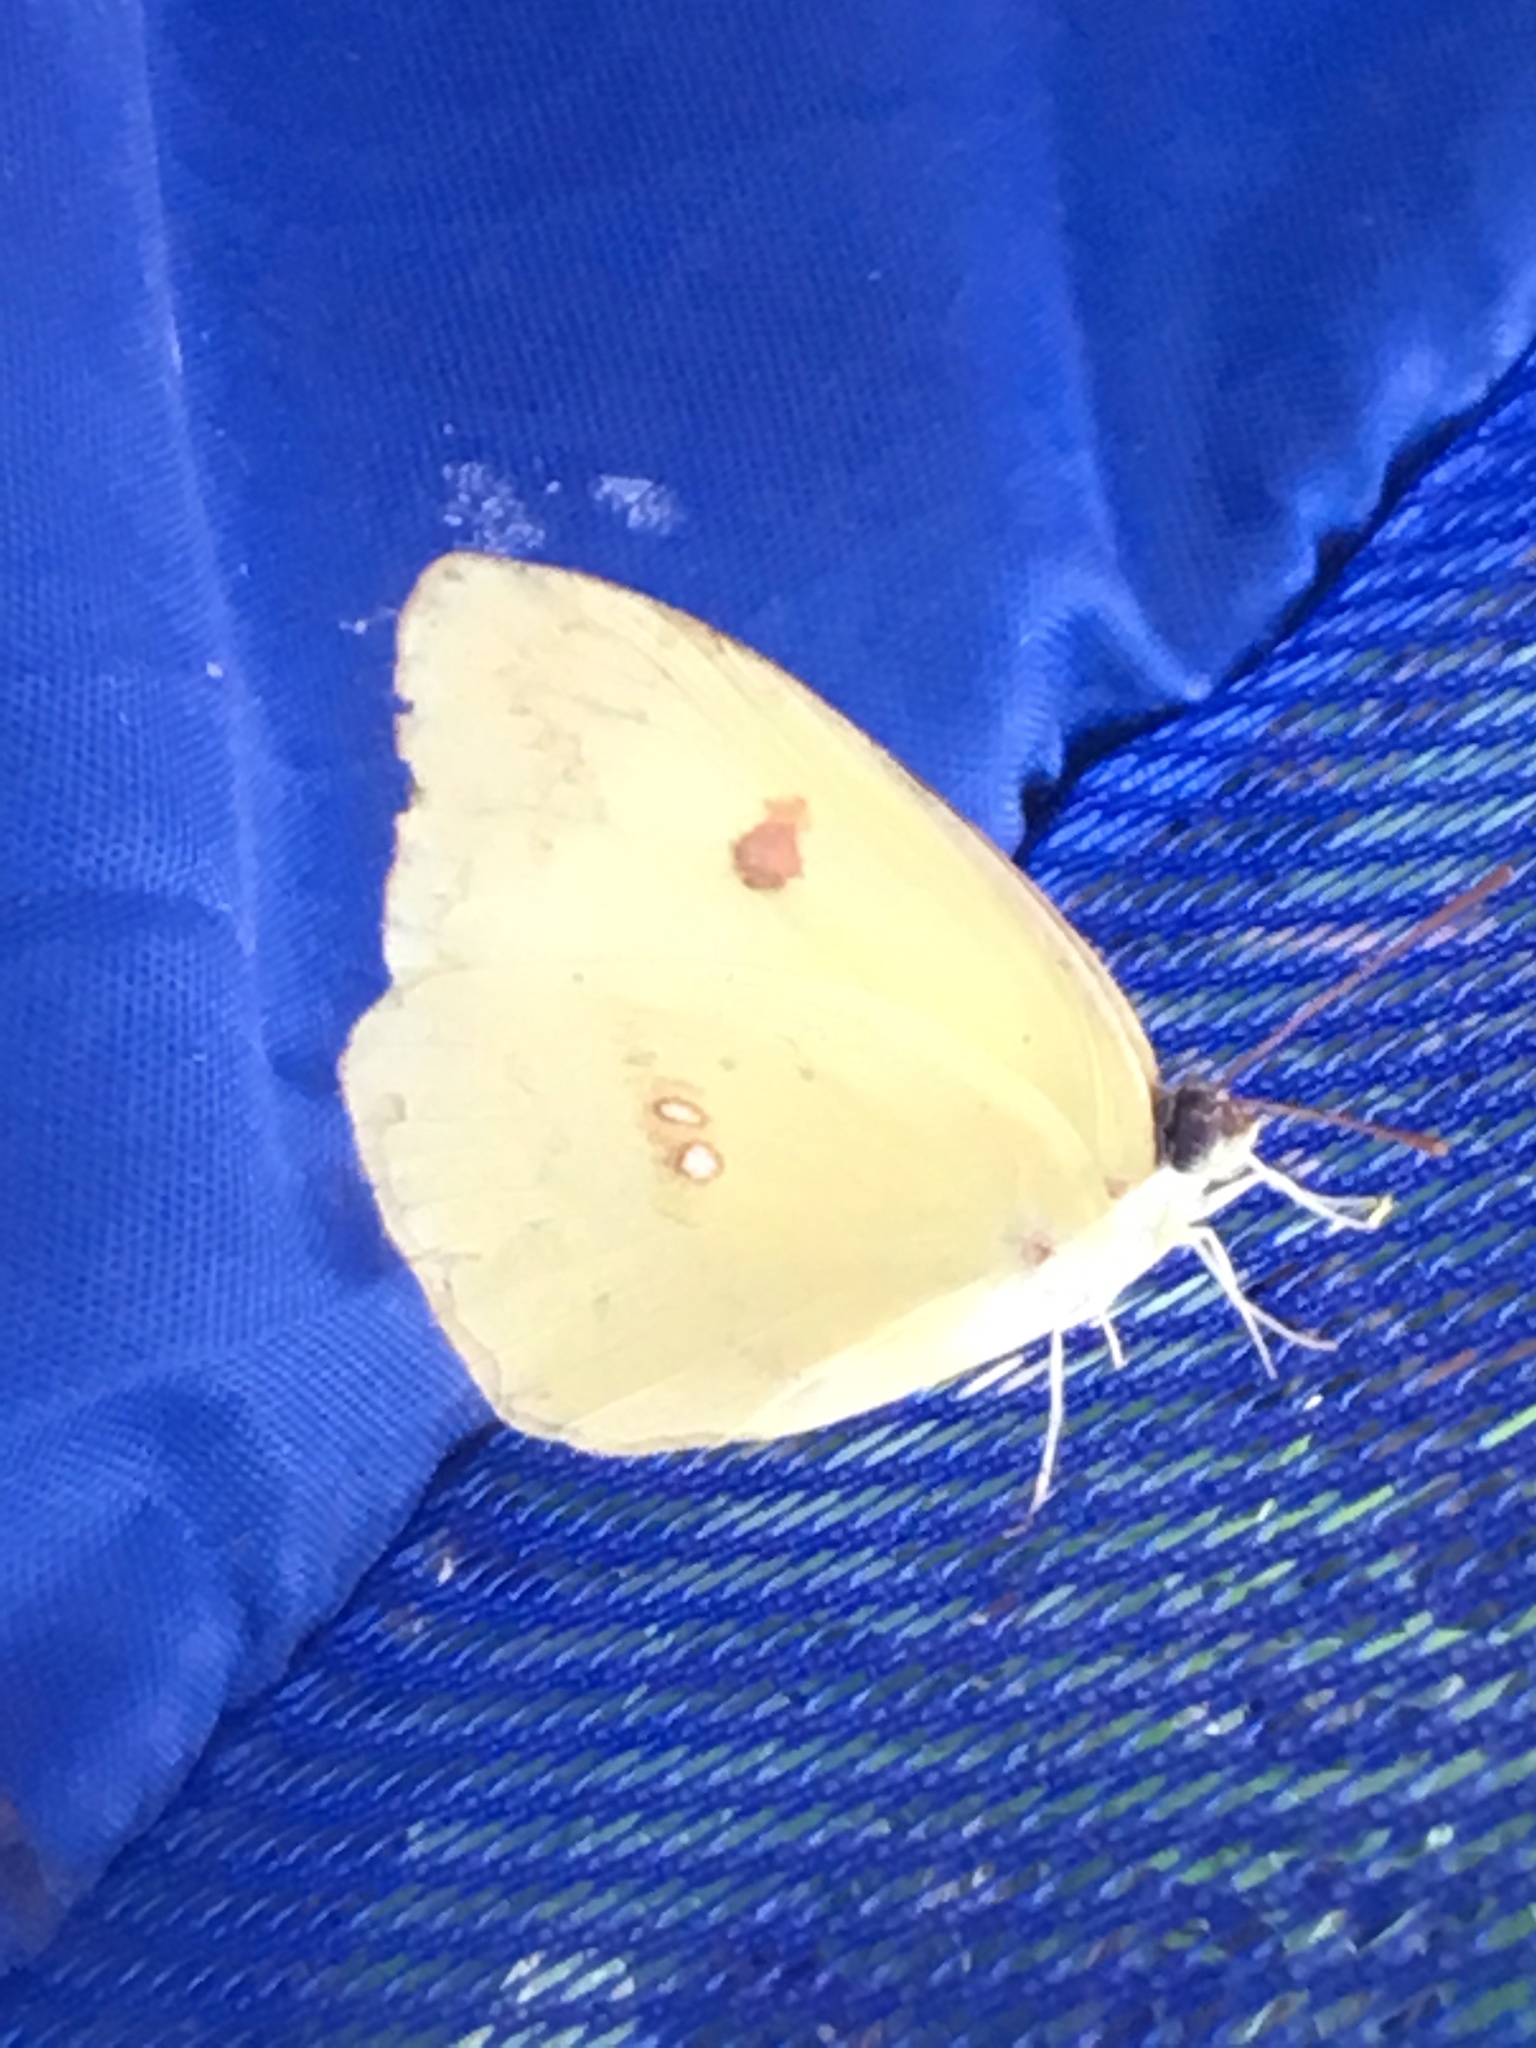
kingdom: Animalia
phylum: Arthropoda
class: Insecta
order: Lepidoptera
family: Pieridae
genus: Phoebis
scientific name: Phoebis sennae
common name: Cloudless sulphur
